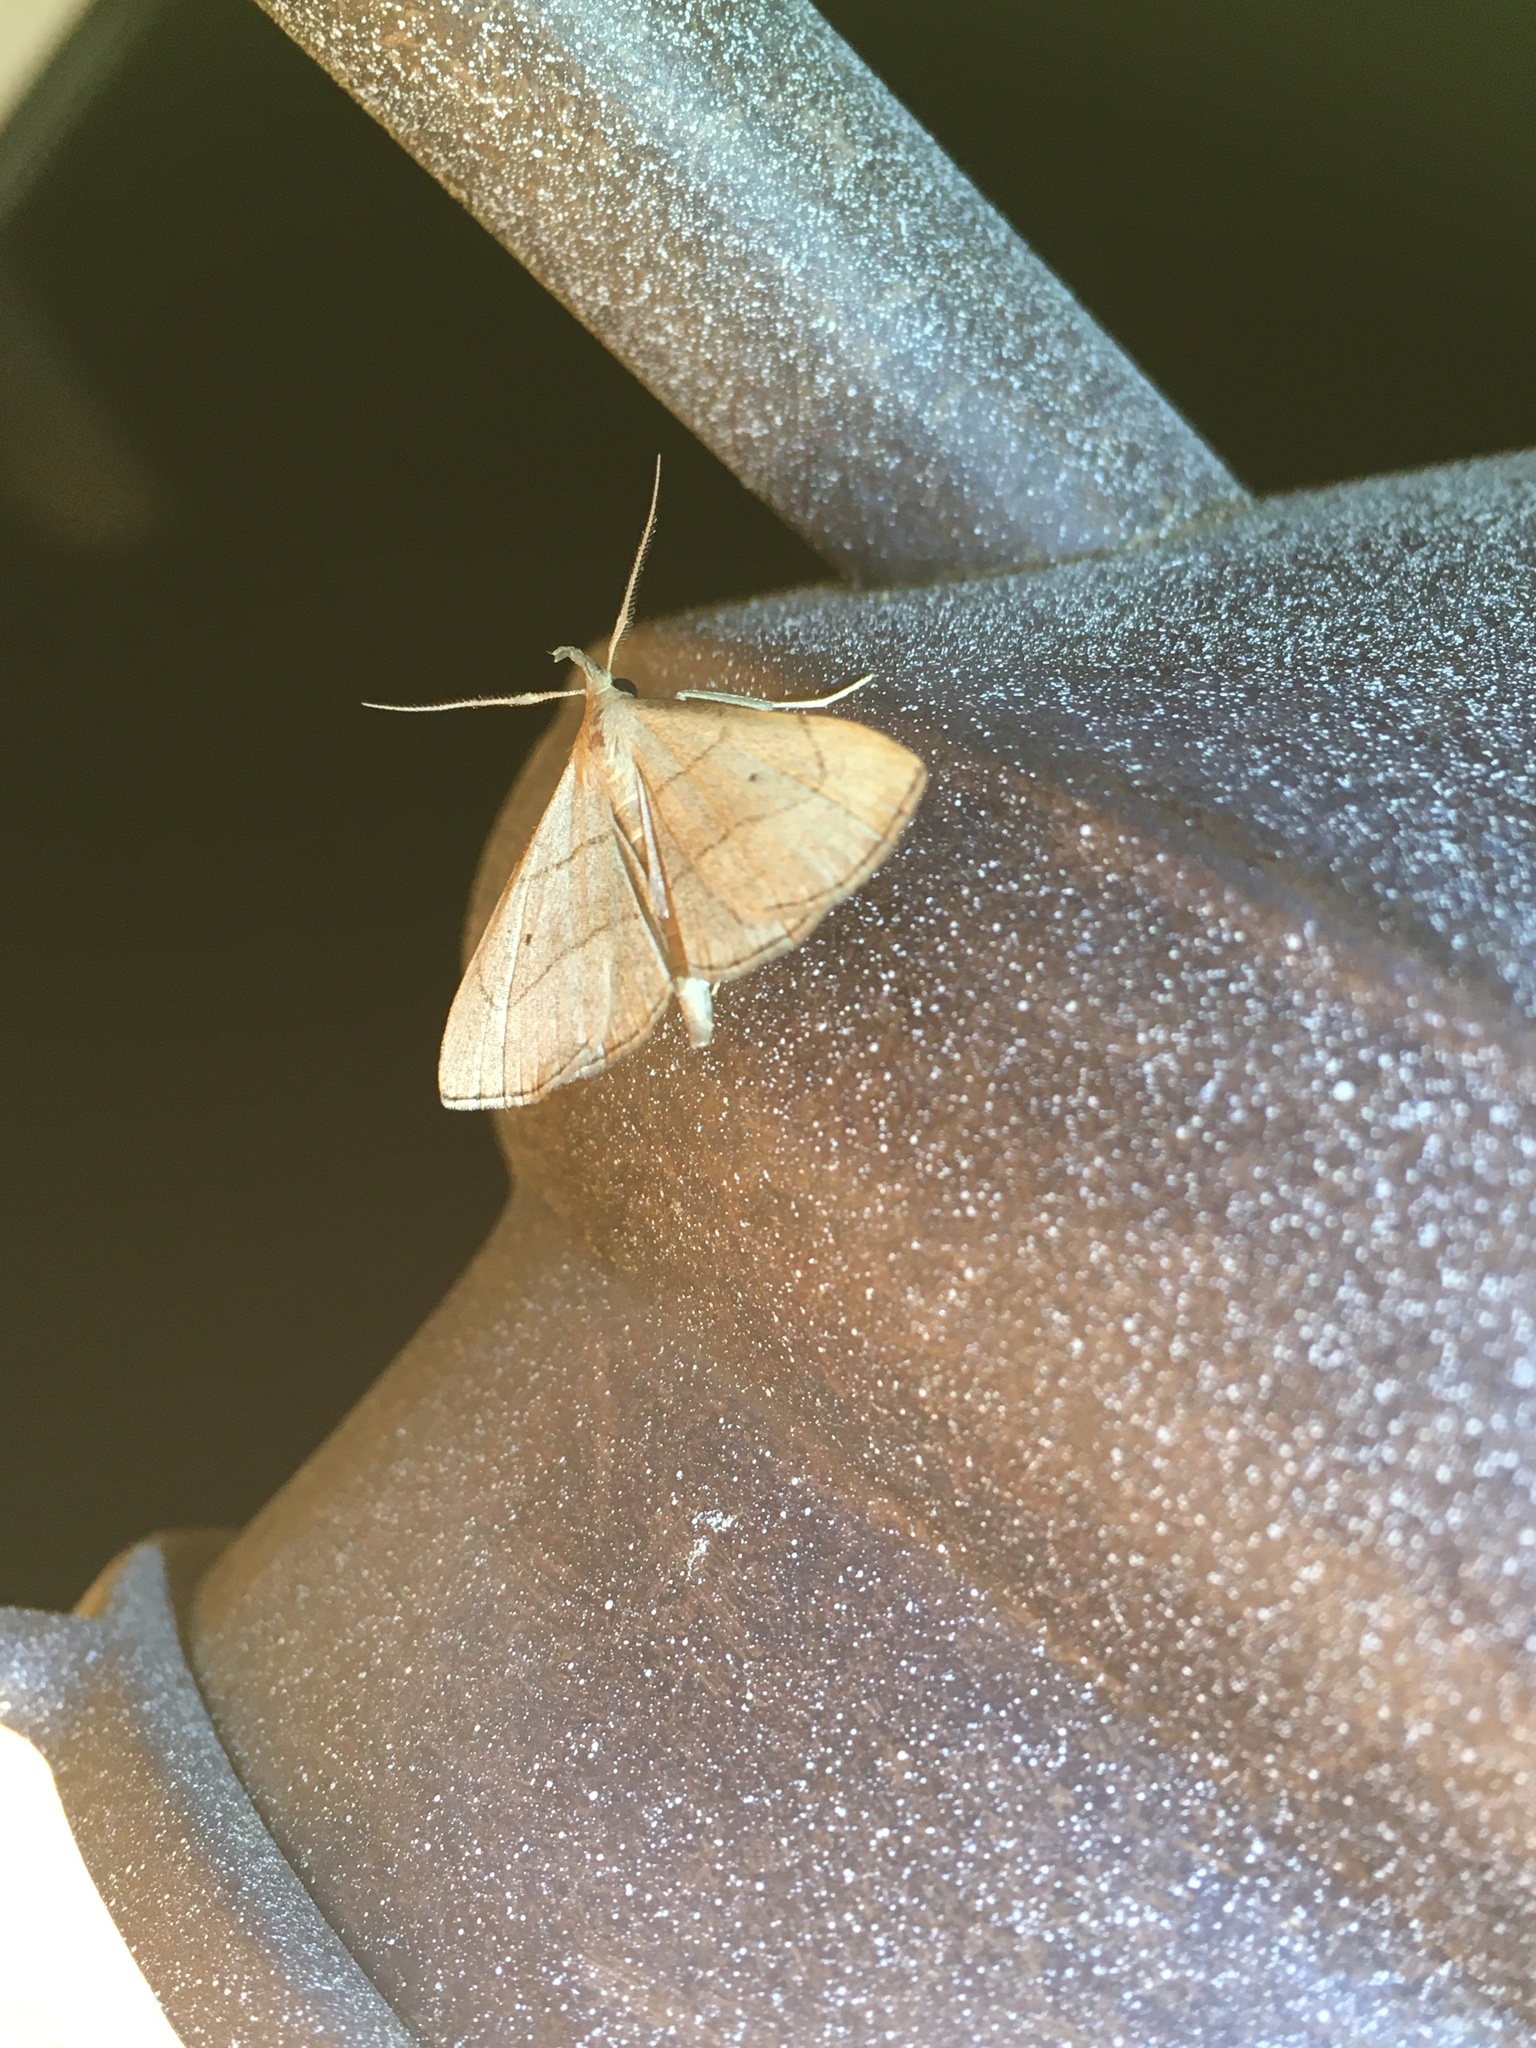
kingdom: Animalia
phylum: Arthropoda
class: Insecta
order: Lepidoptera
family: Erebidae
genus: Macrochilo
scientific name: Macrochilo litophora
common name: Brown-lined owlet
